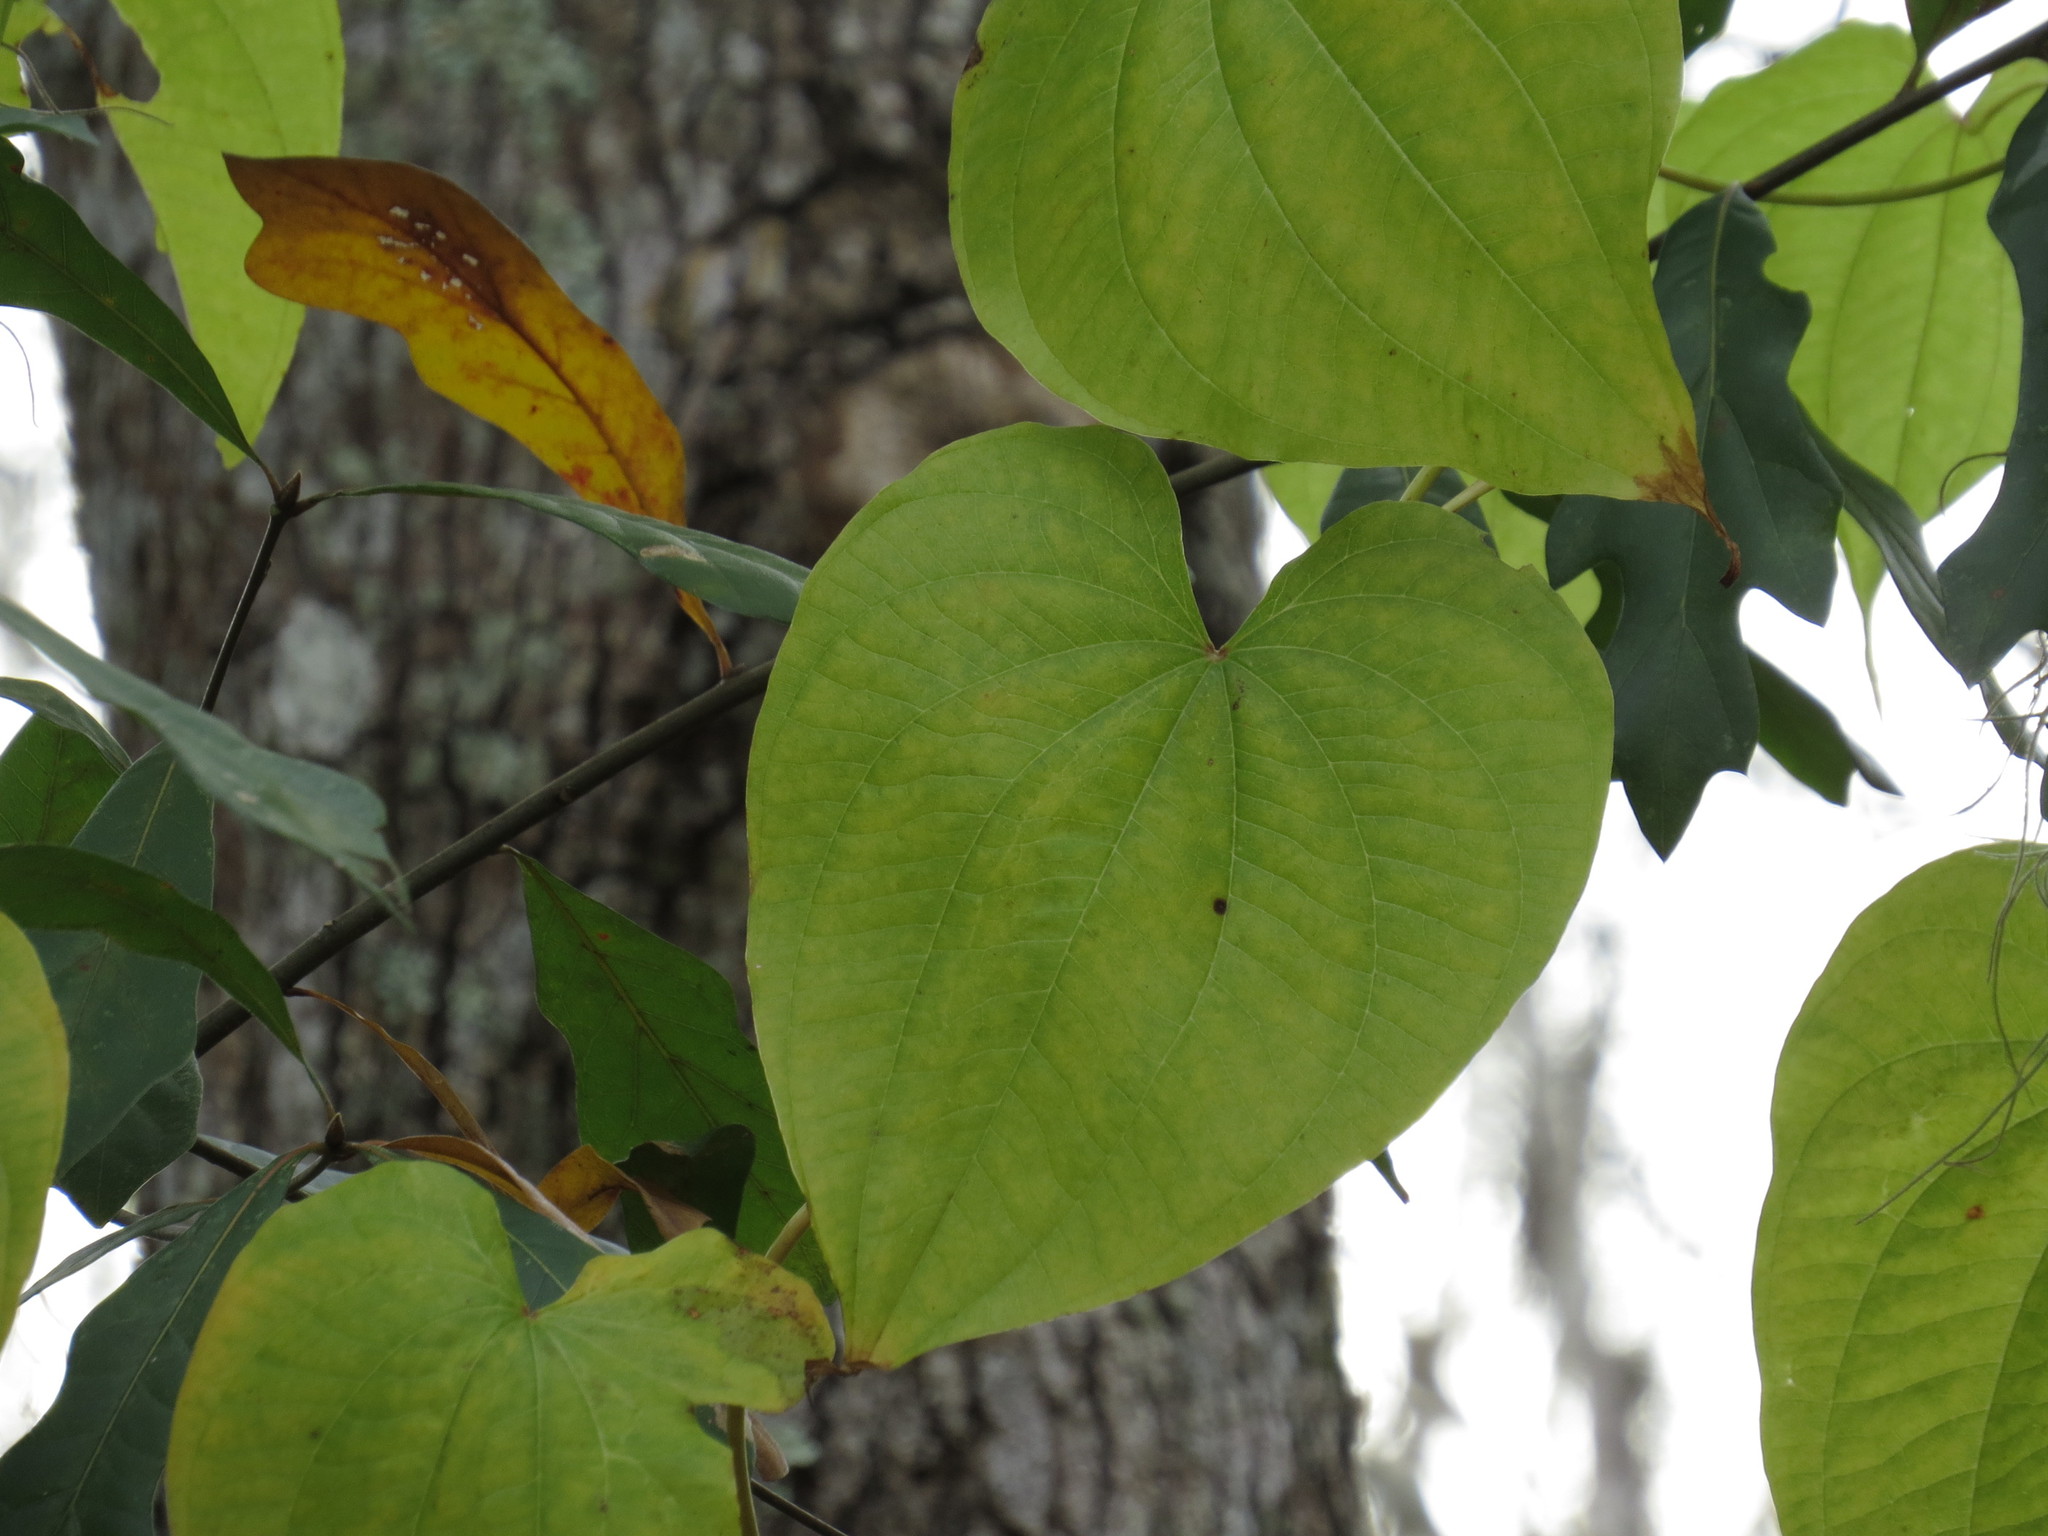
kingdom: Plantae
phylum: Tracheophyta
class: Liliopsida
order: Dioscoreales
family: Dioscoreaceae
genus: Dioscorea
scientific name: Dioscorea bulbifera
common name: Air yam
